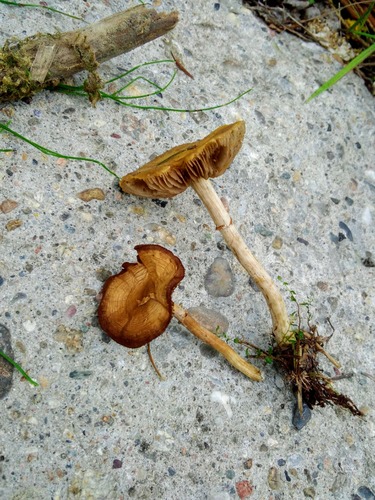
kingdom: Fungi
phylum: Basidiomycota
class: Agaricomycetes
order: Agaricales
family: Strophariaceae
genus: Agrocybe
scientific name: Agrocybe praecox
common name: Spring fieldcap
